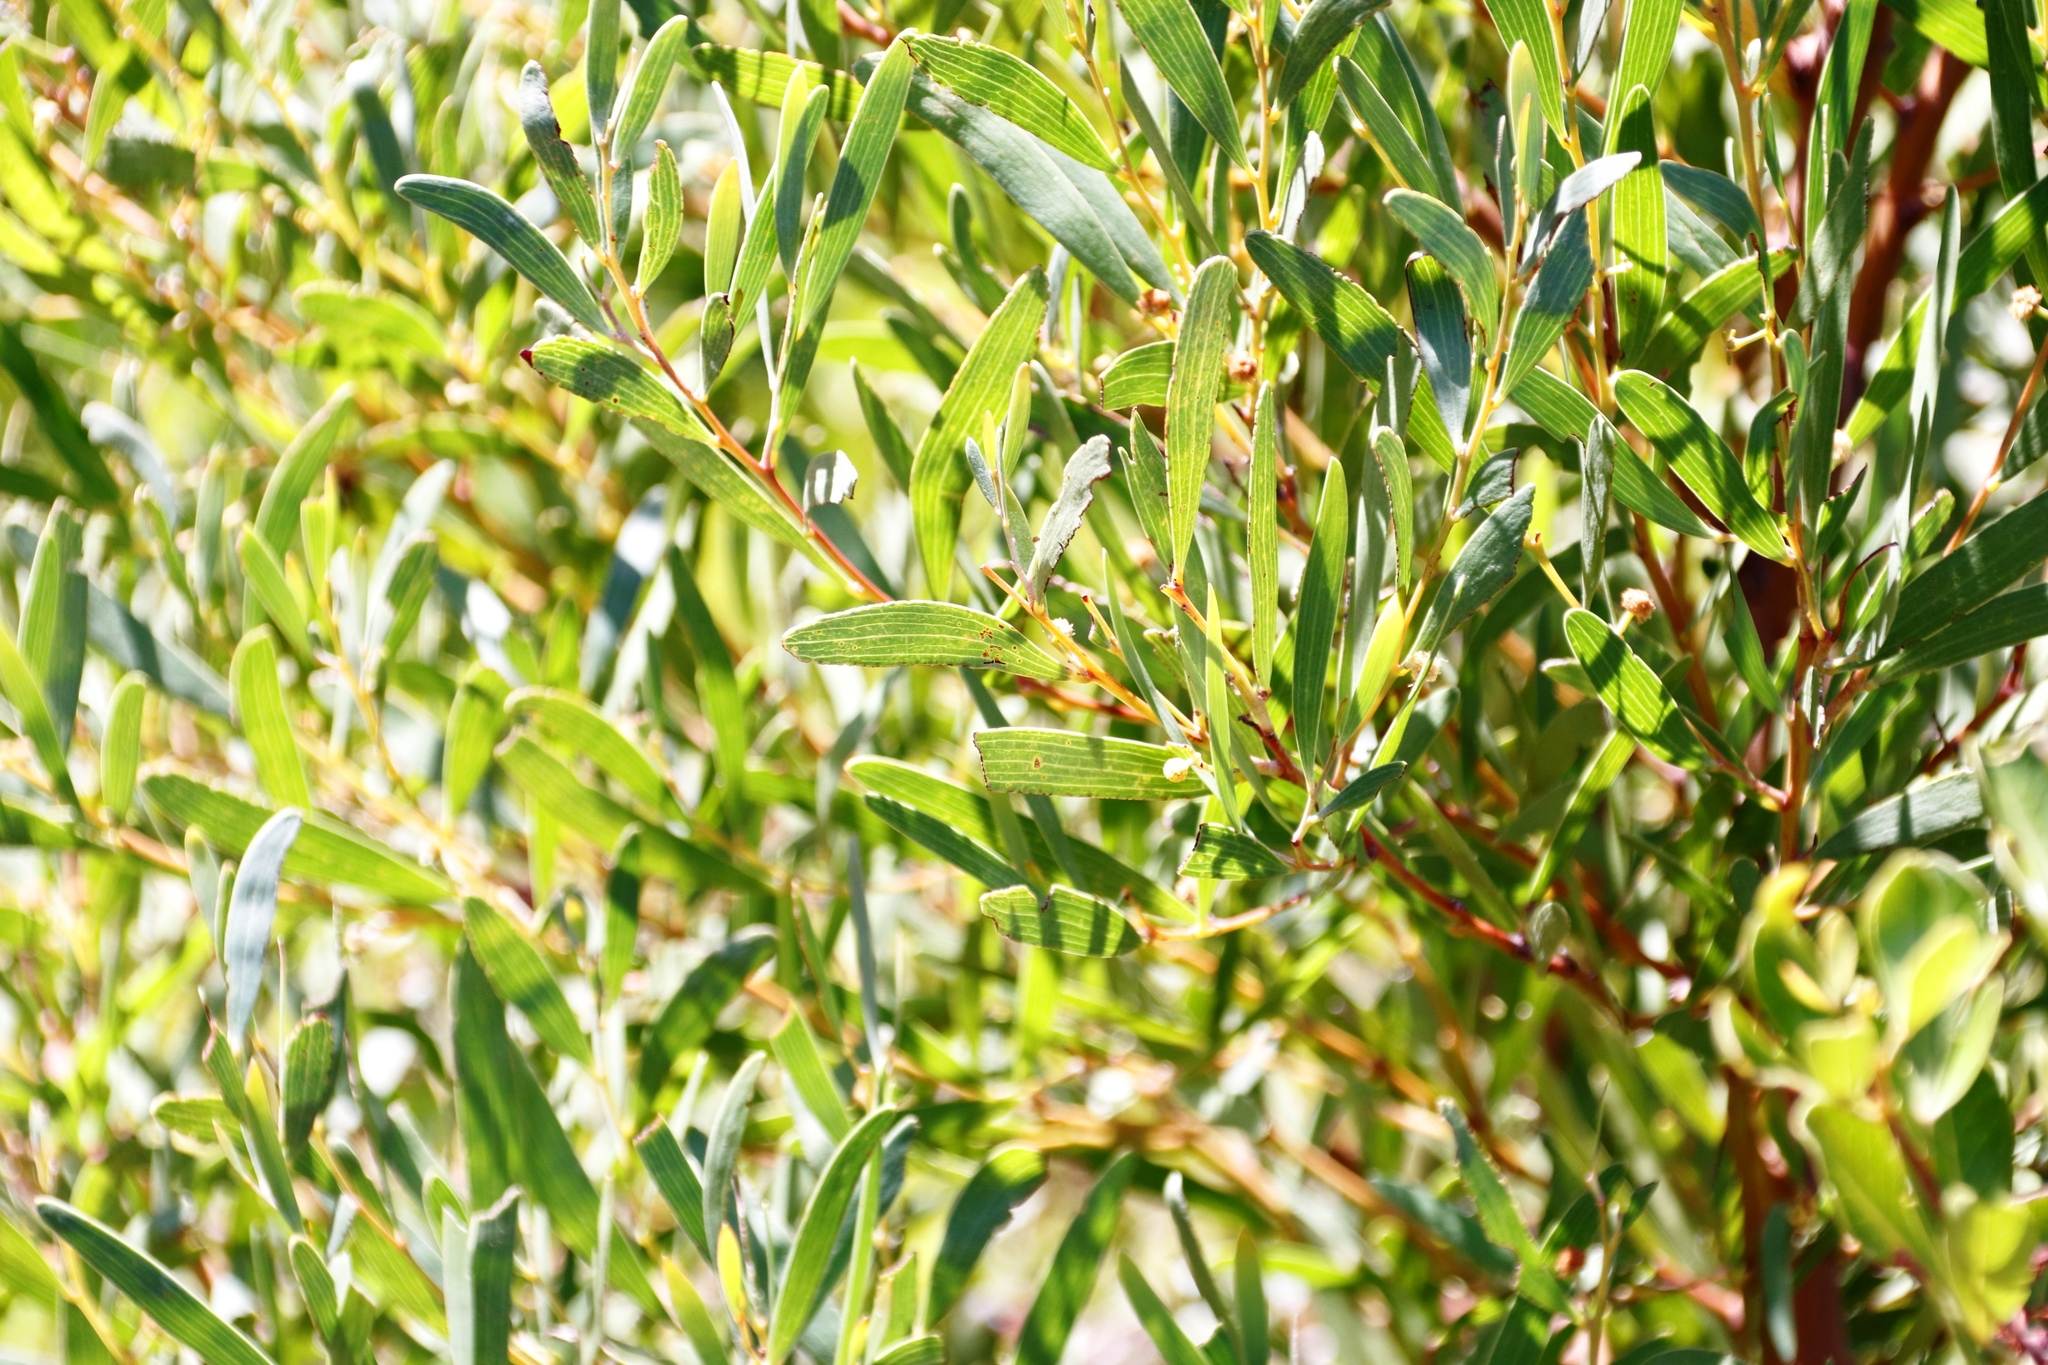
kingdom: Plantae
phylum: Tracheophyta
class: Magnoliopsida
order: Fabales
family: Fabaceae
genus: Acacia
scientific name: Acacia cyclops
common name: Coastal wattle
